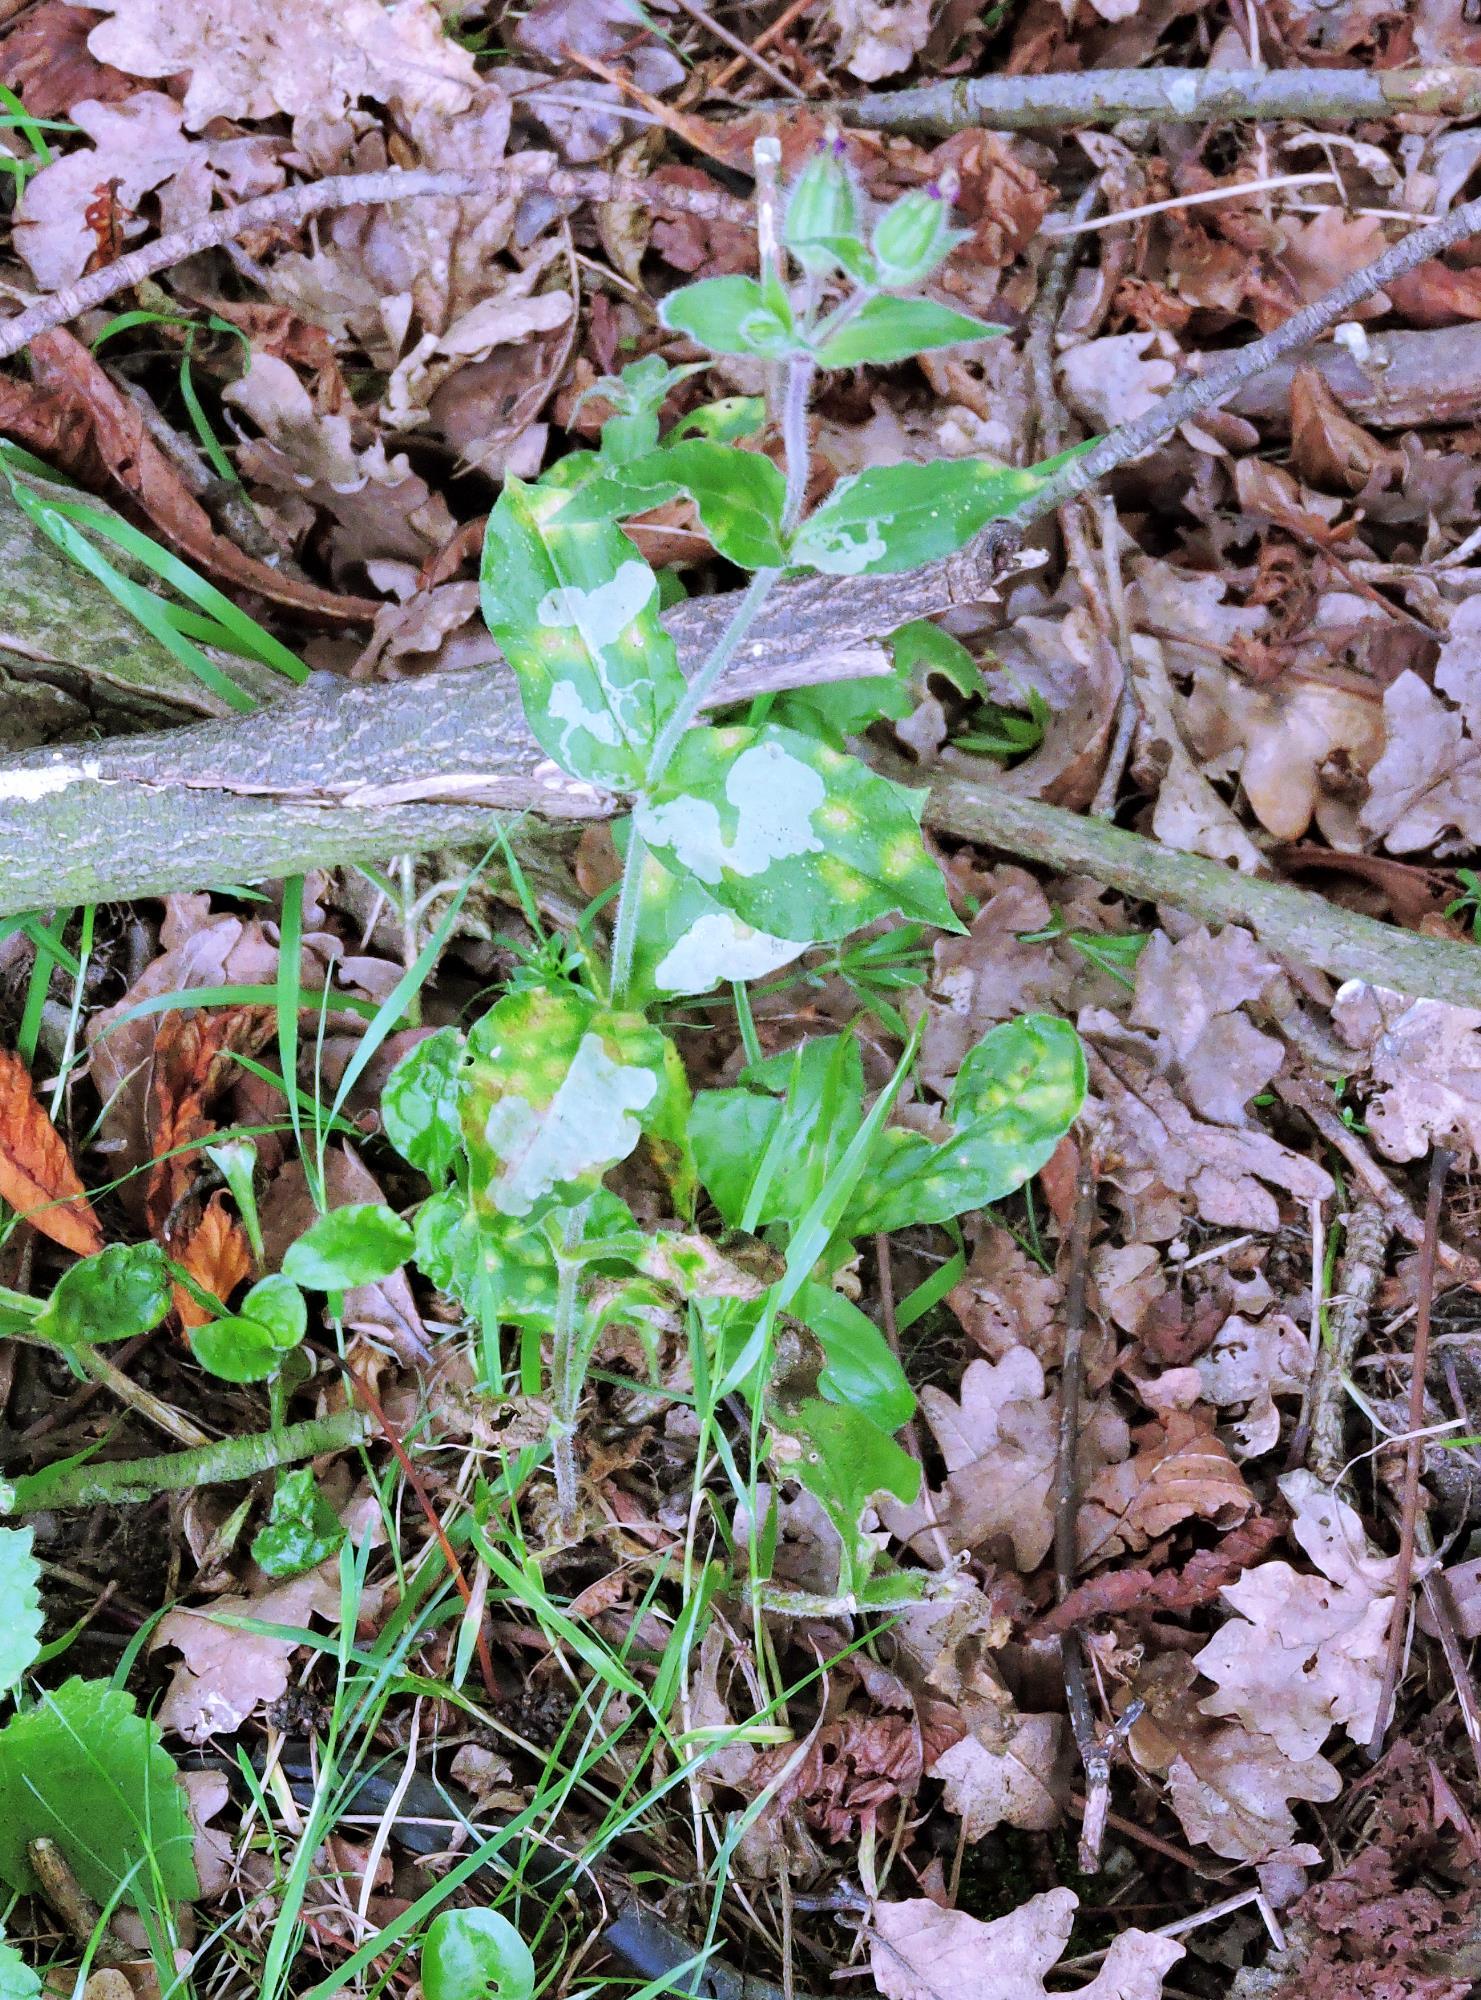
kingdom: Animalia
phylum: Arthropoda
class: Insecta
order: Diptera
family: Agromyzidae
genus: Amauromyza
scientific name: Amauromyza flavifrons
